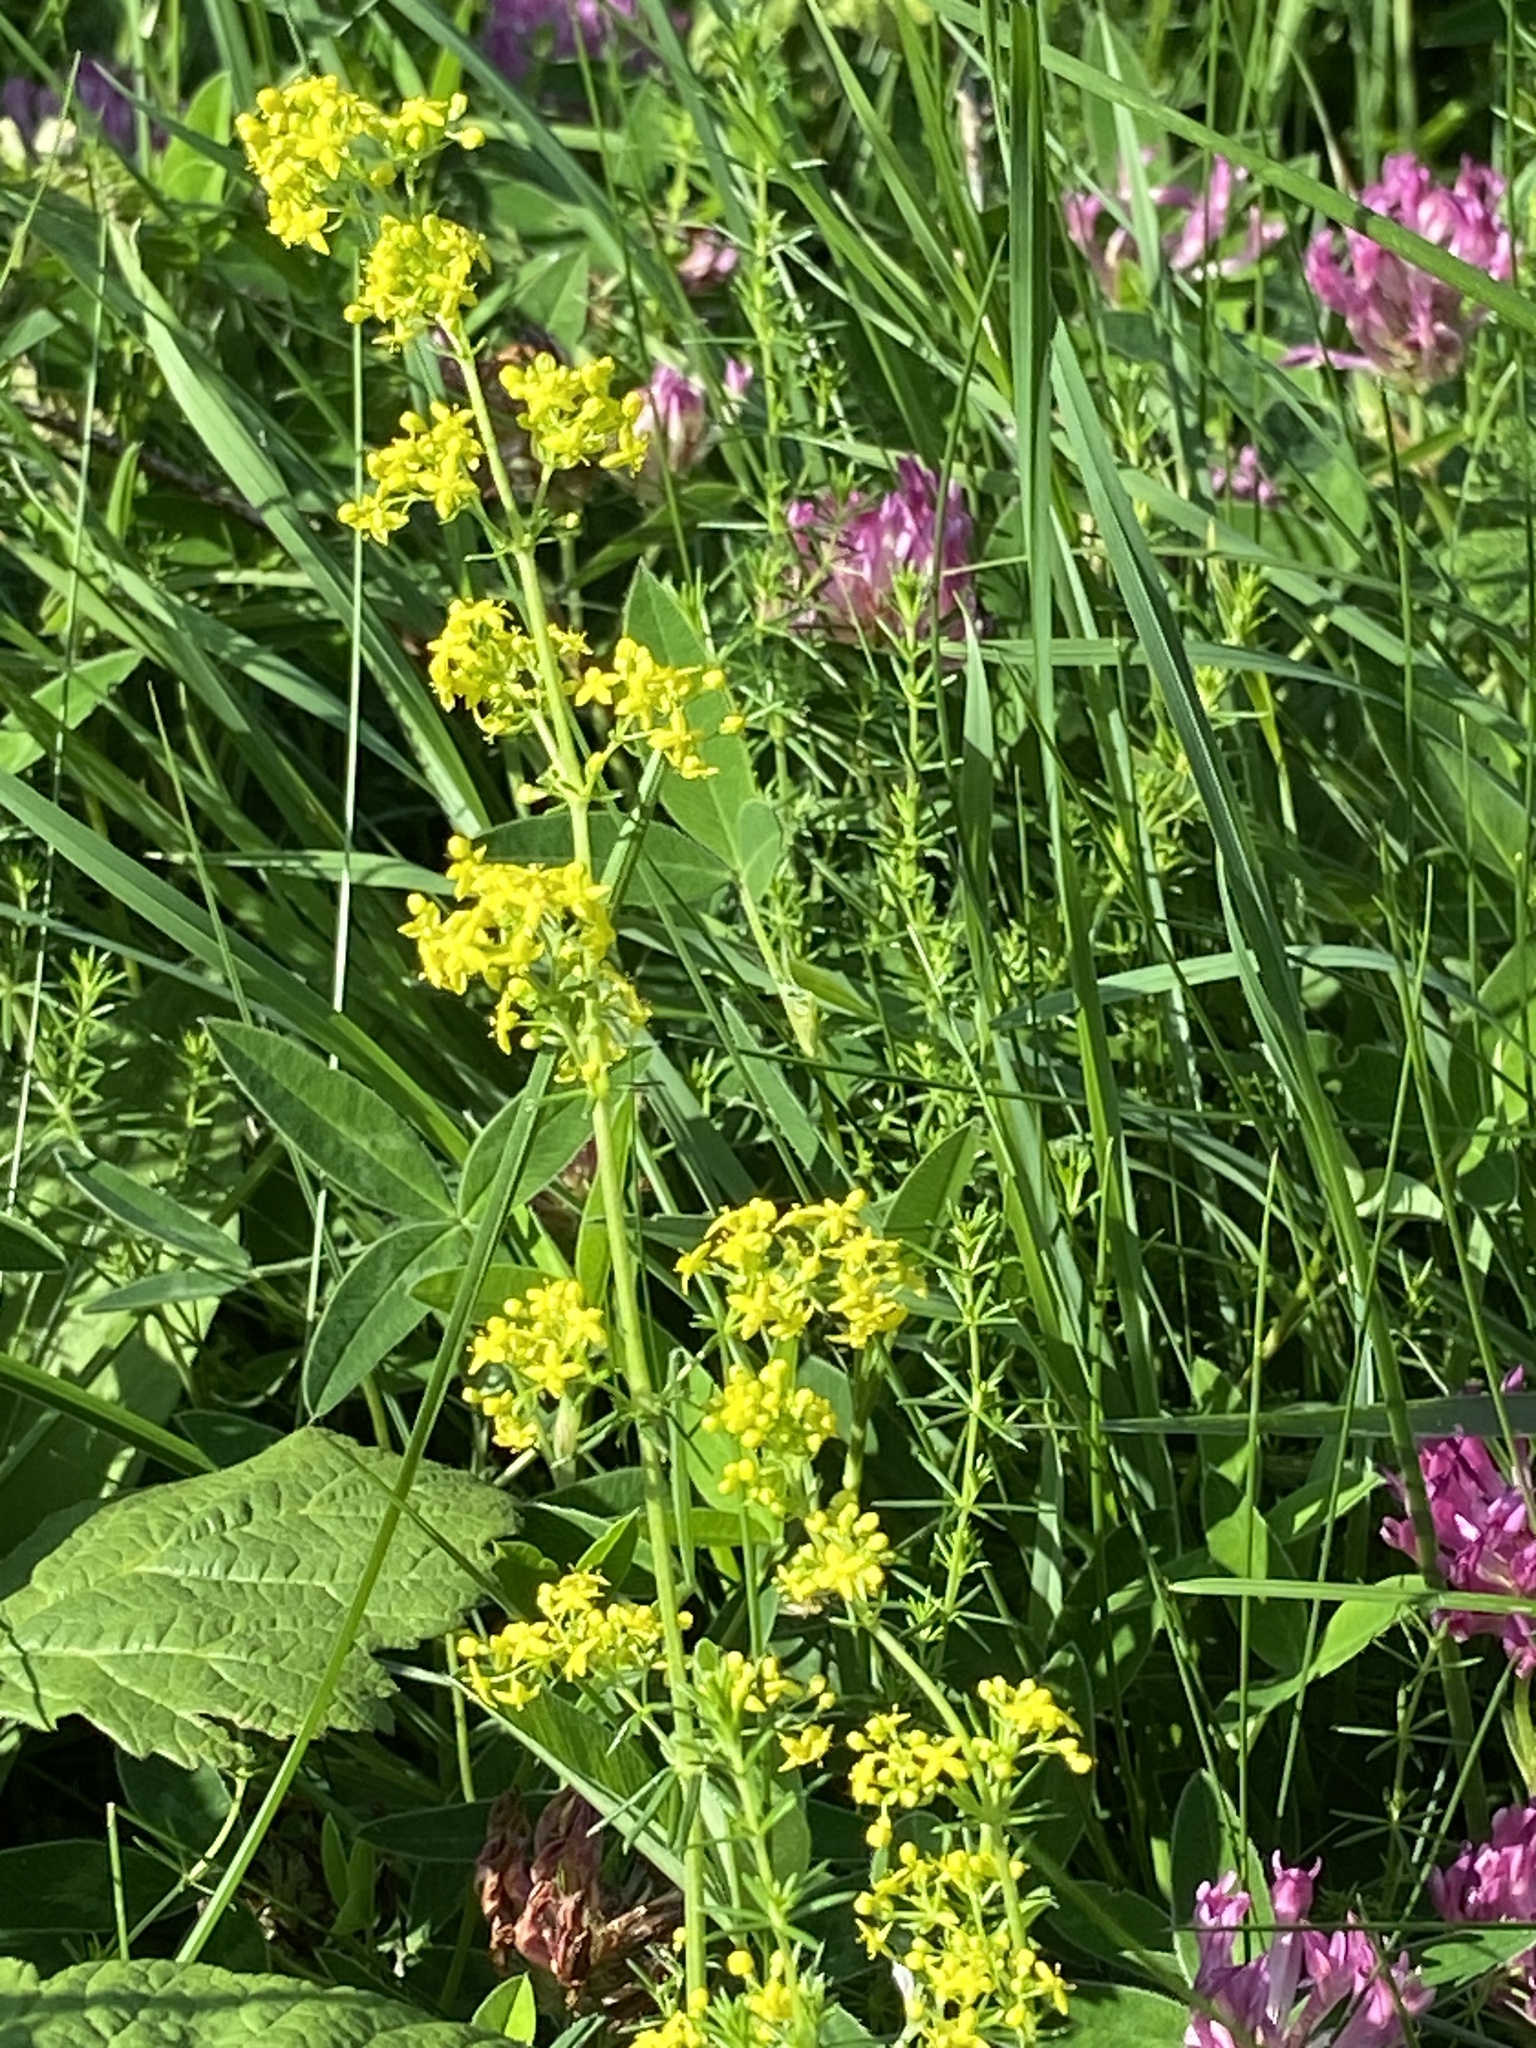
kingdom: Plantae
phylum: Tracheophyta
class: Magnoliopsida
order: Gentianales
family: Rubiaceae
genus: Galium
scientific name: Galium verum
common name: Lady's bedstraw
